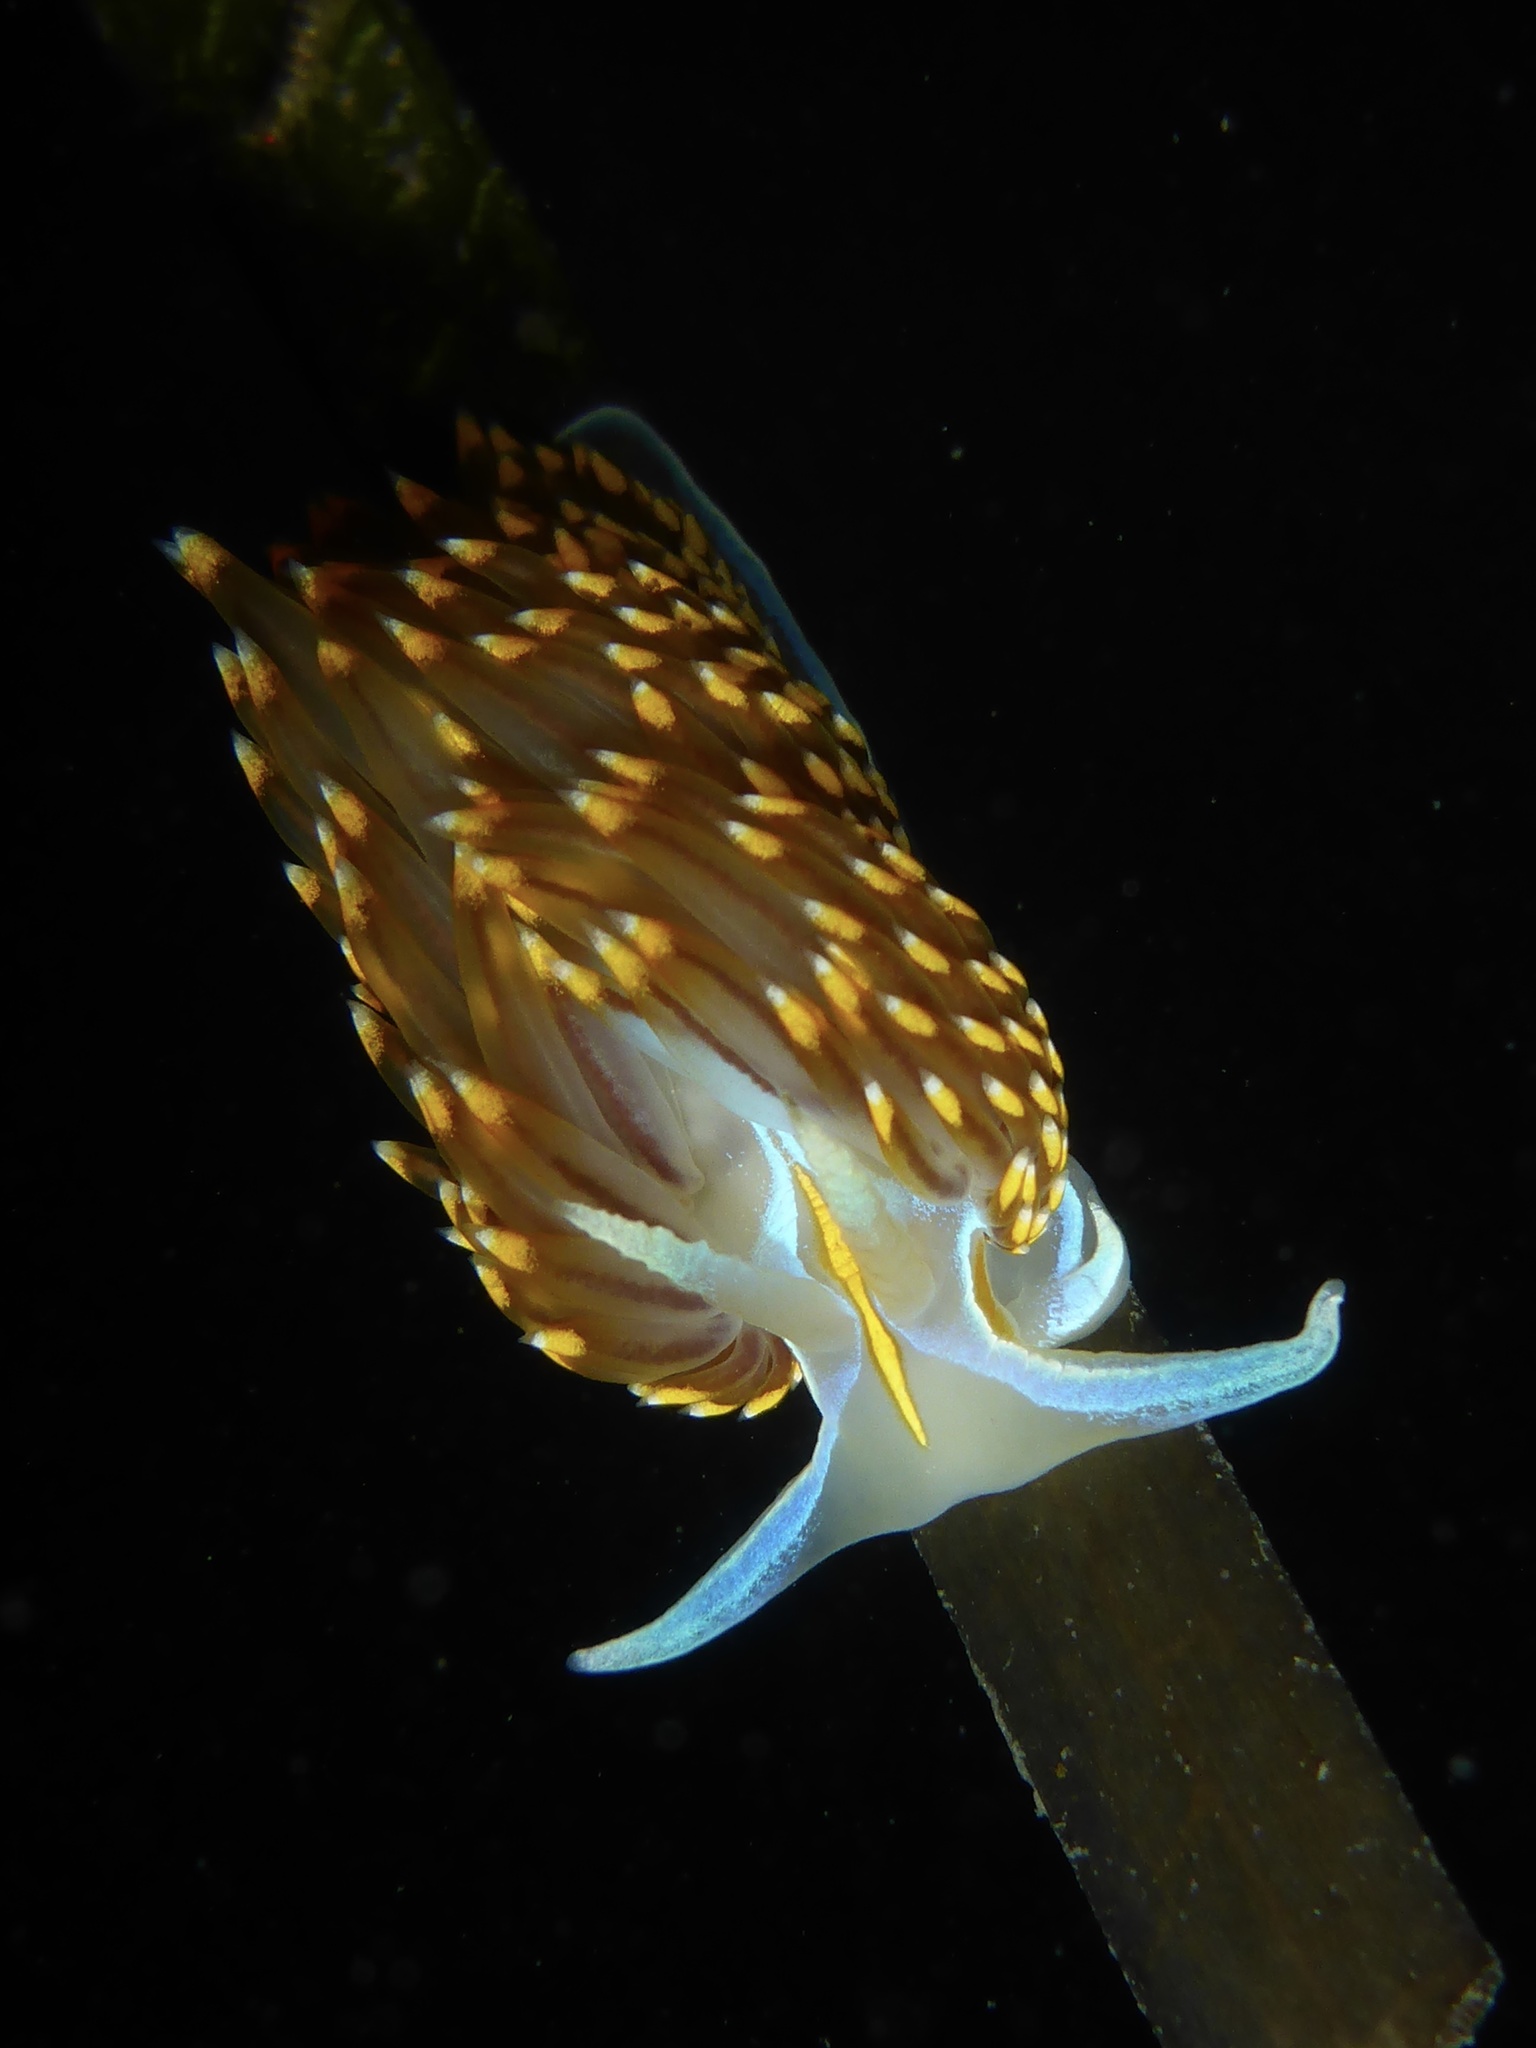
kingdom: Animalia
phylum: Mollusca
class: Gastropoda
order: Nudibranchia
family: Myrrhinidae
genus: Hermissenda
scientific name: Hermissenda opalescens
